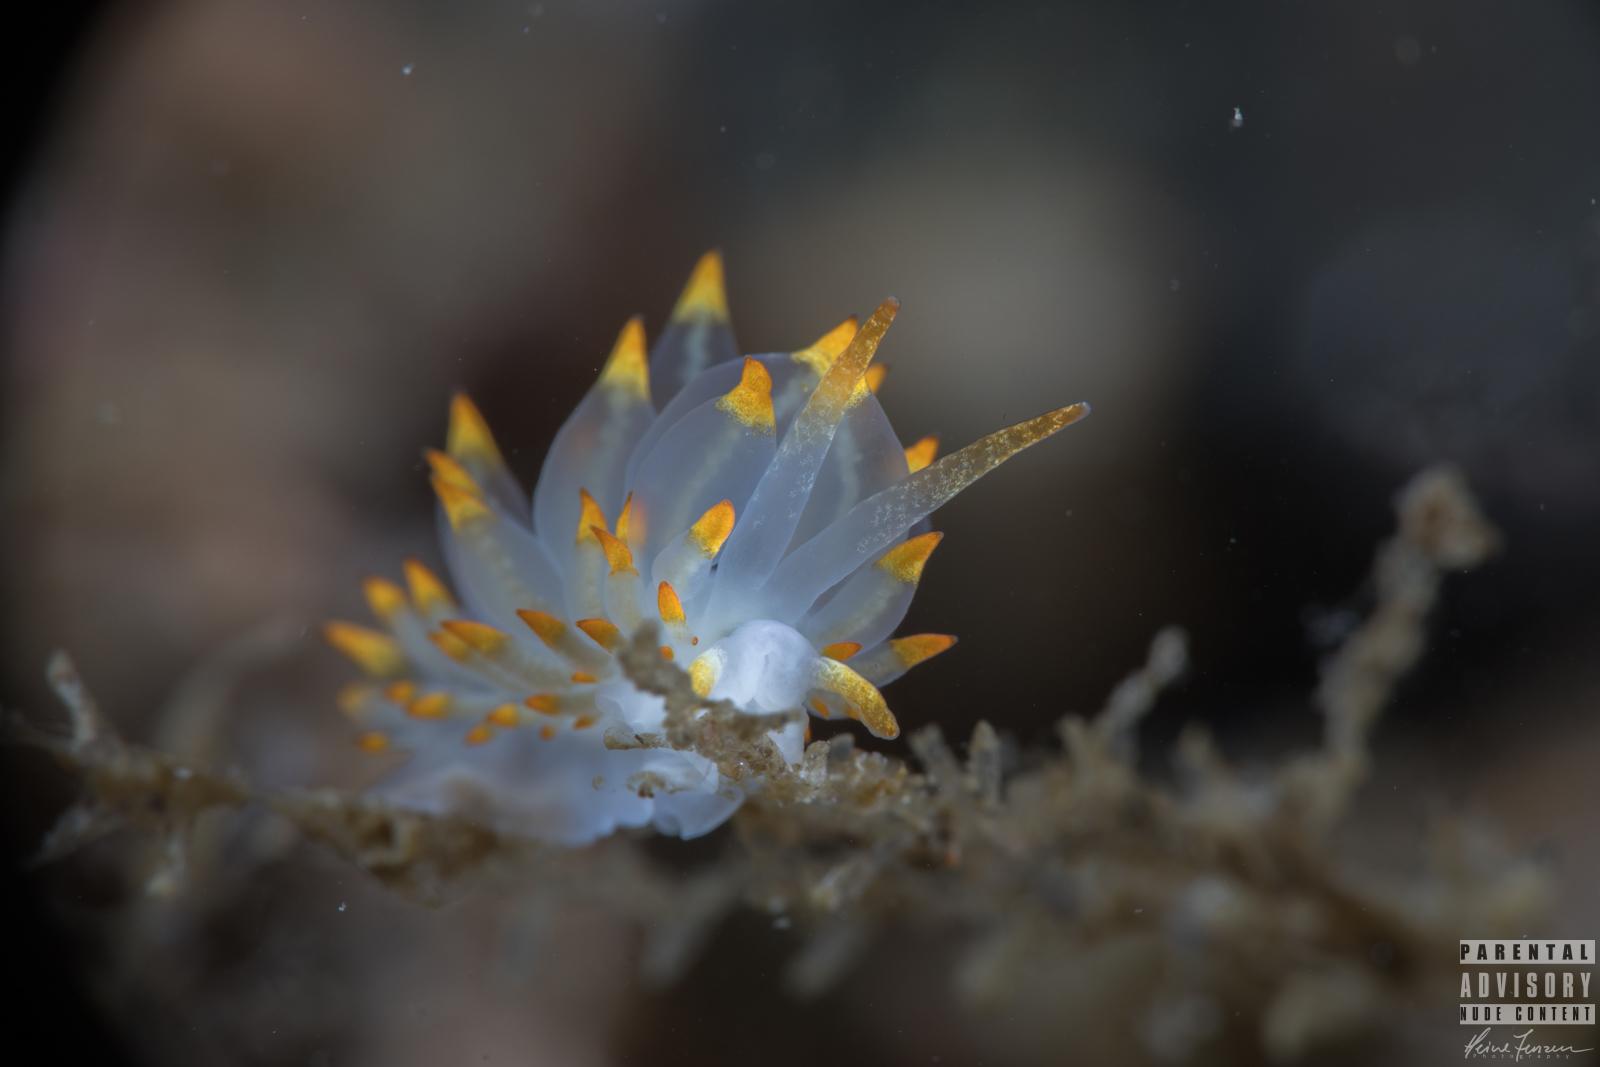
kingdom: Animalia
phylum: Mollusca
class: Gastropoda
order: Nudibranchia
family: Eubranchidae
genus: Amphorina
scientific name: Amphorina farrani
